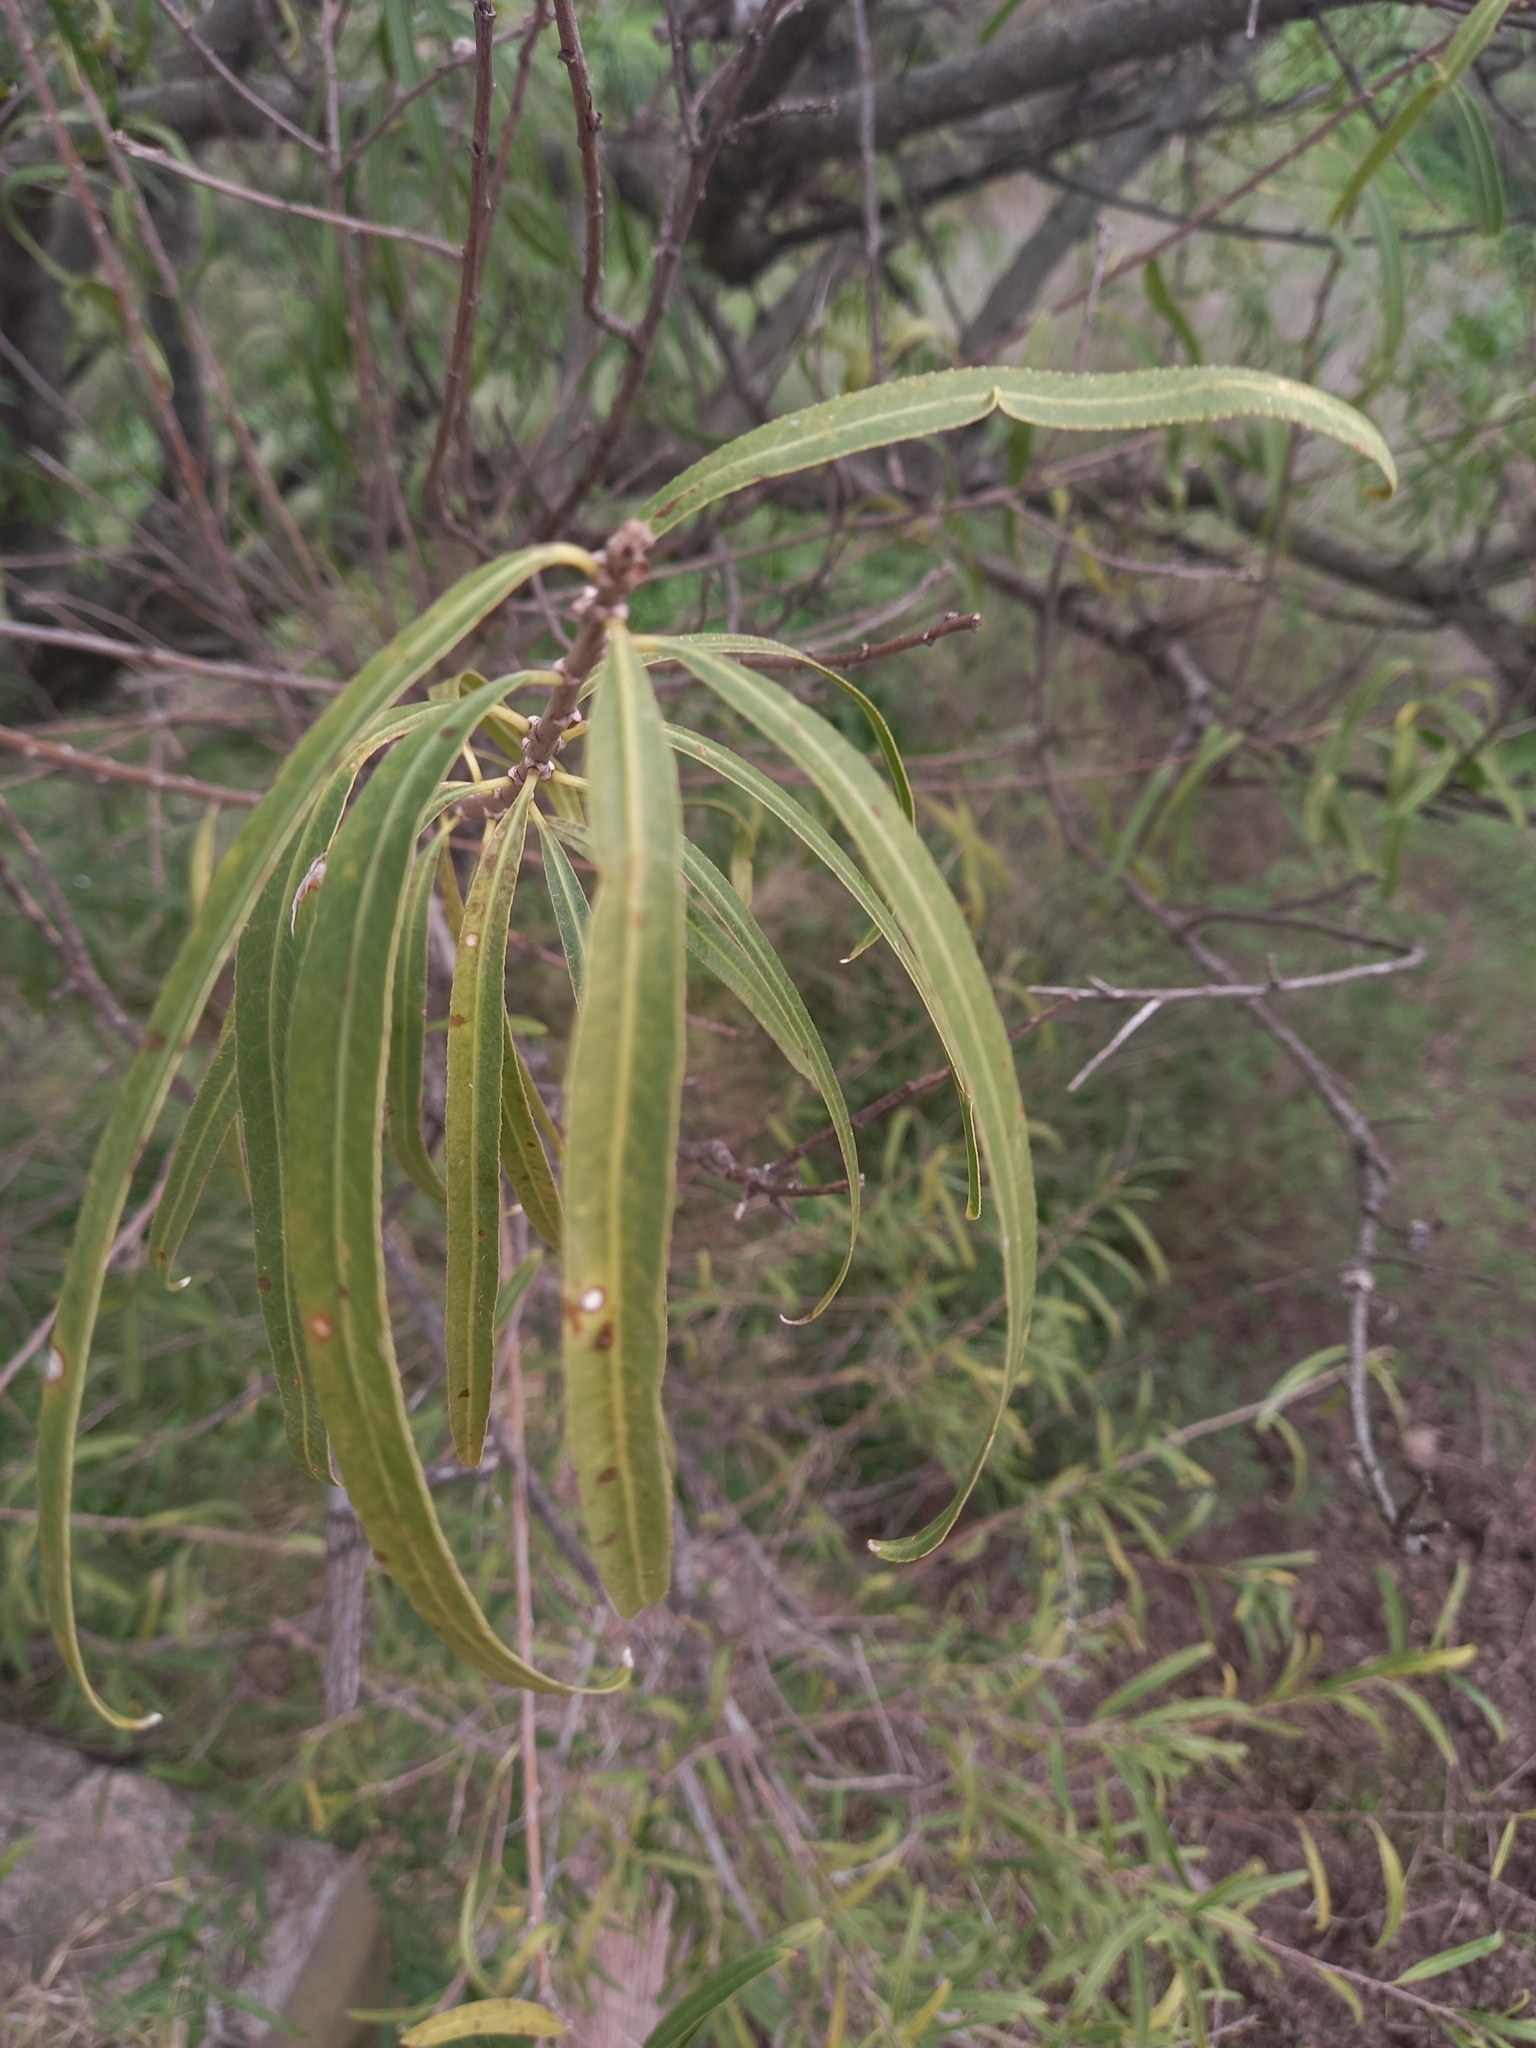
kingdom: Plantae
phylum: Tracheophyta
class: Magnoliopsida
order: Malpighiales
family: Euphorbiaceae
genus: Sapium
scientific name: Sapium haematospermum
